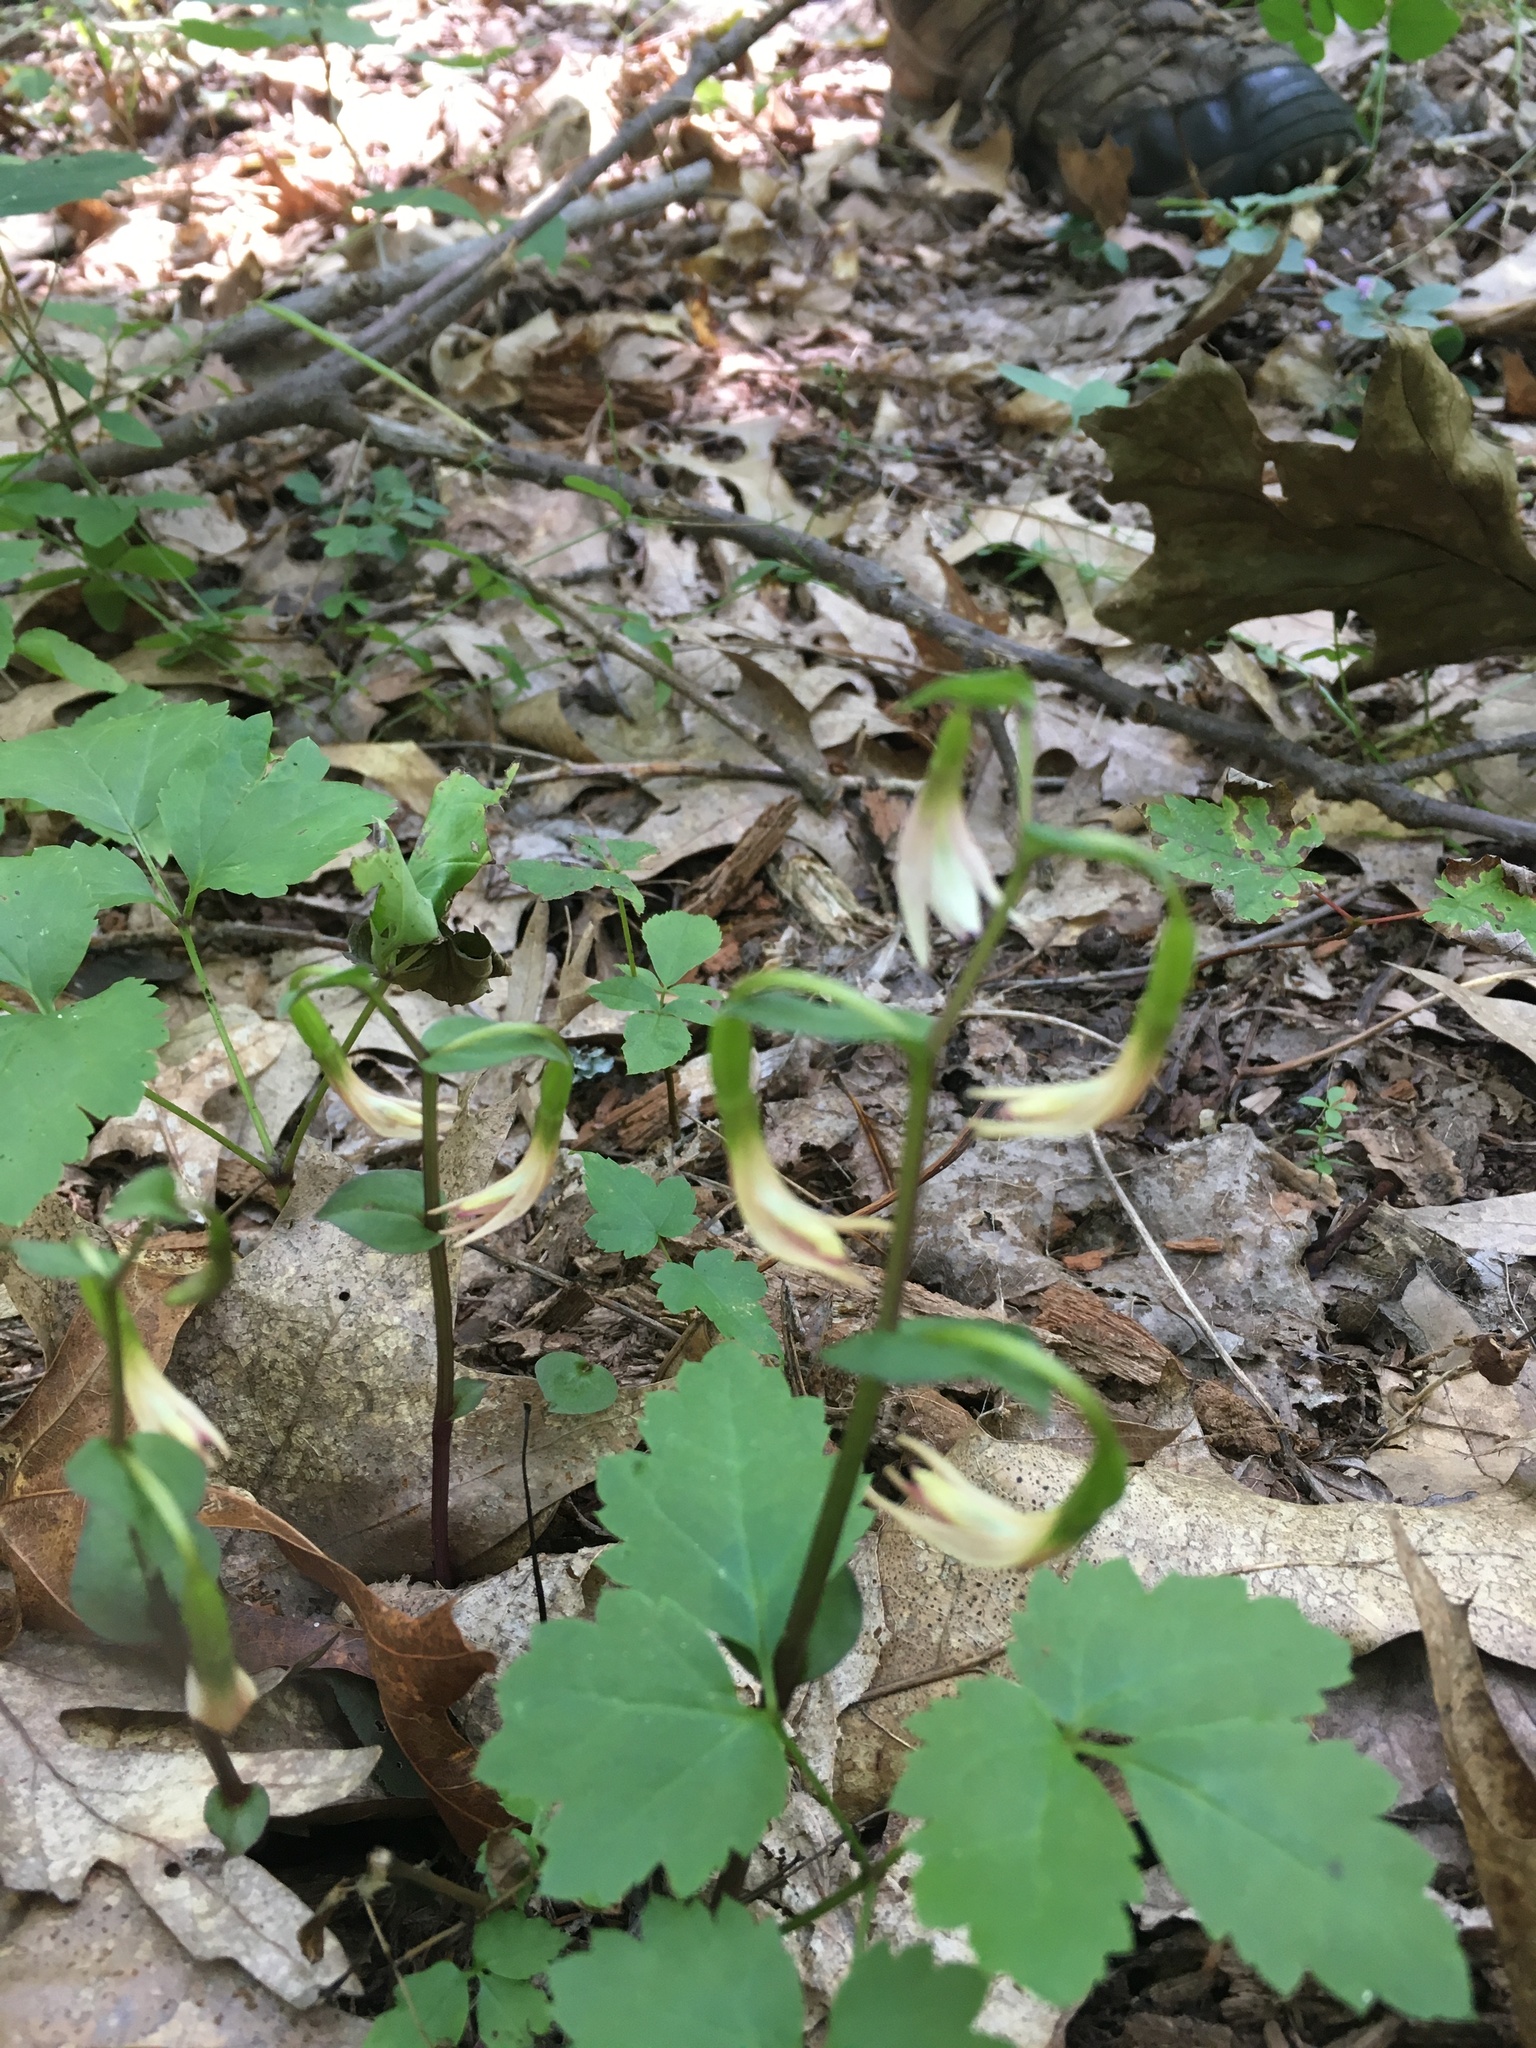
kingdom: Plantae
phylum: Tracheophyta
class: Liliopsida
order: Asparagales
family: Orchidaceae
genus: Triphora
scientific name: Triphora trianthophoros
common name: Three birds orchid
